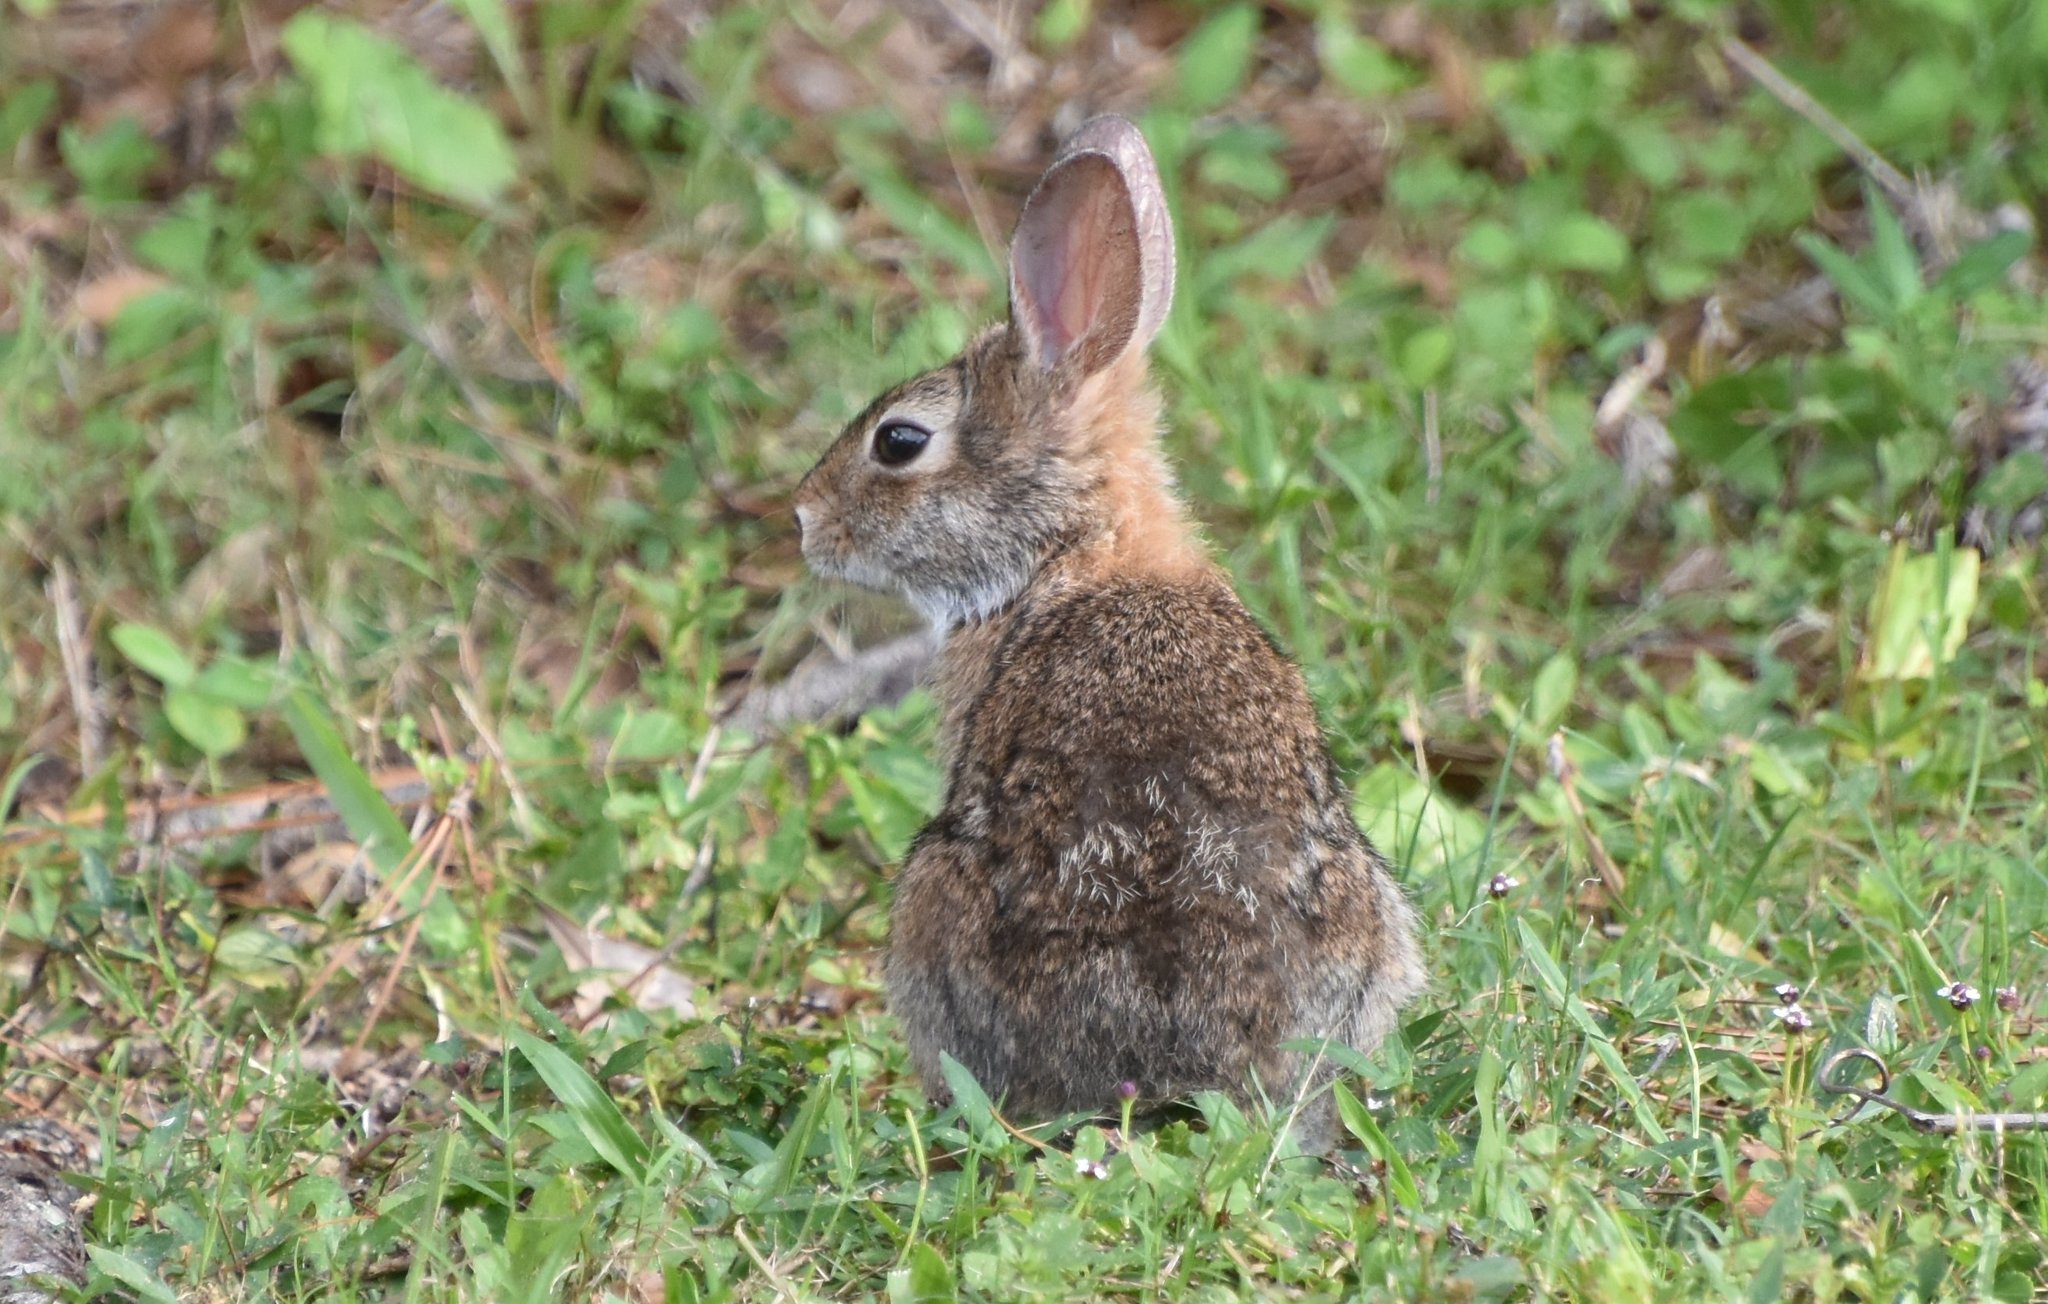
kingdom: Animalia
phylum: Chordata
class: Mammalia
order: Lagomorpha
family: Leporidae
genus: Sylvilagus
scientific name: Sylvilagus floridanus
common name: Eastern cottontail
